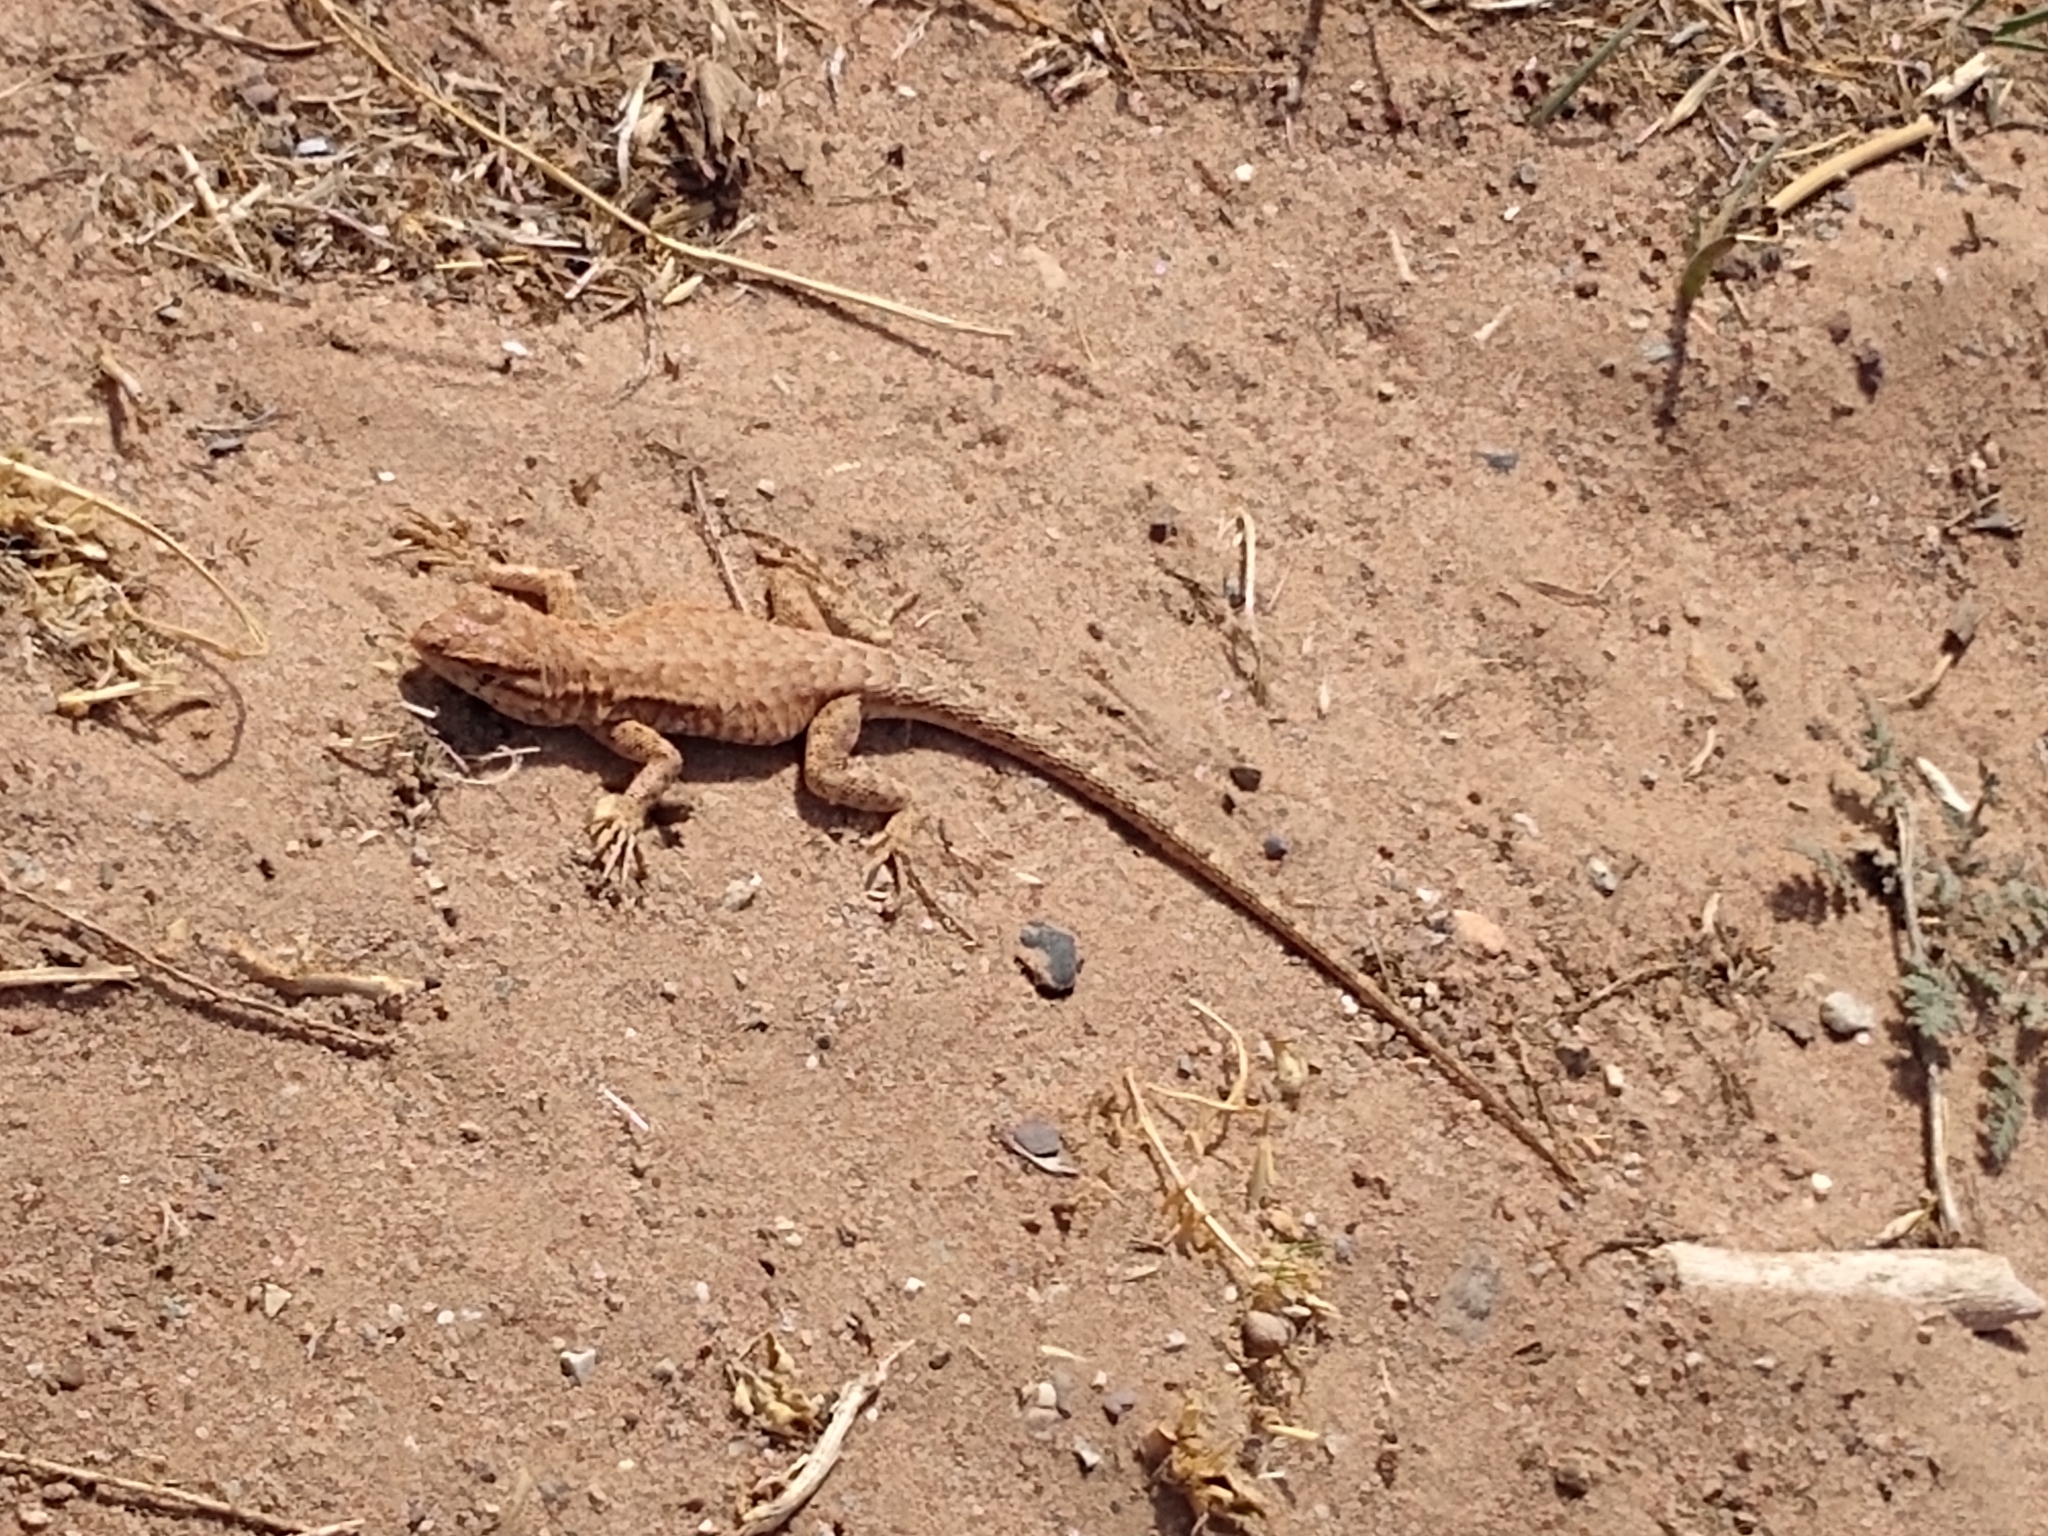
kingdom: Animalia
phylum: Chordata
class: Squamata
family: Phrynosomatidae
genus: Uta
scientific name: Uta stansburiana
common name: Side-blotched lizard
